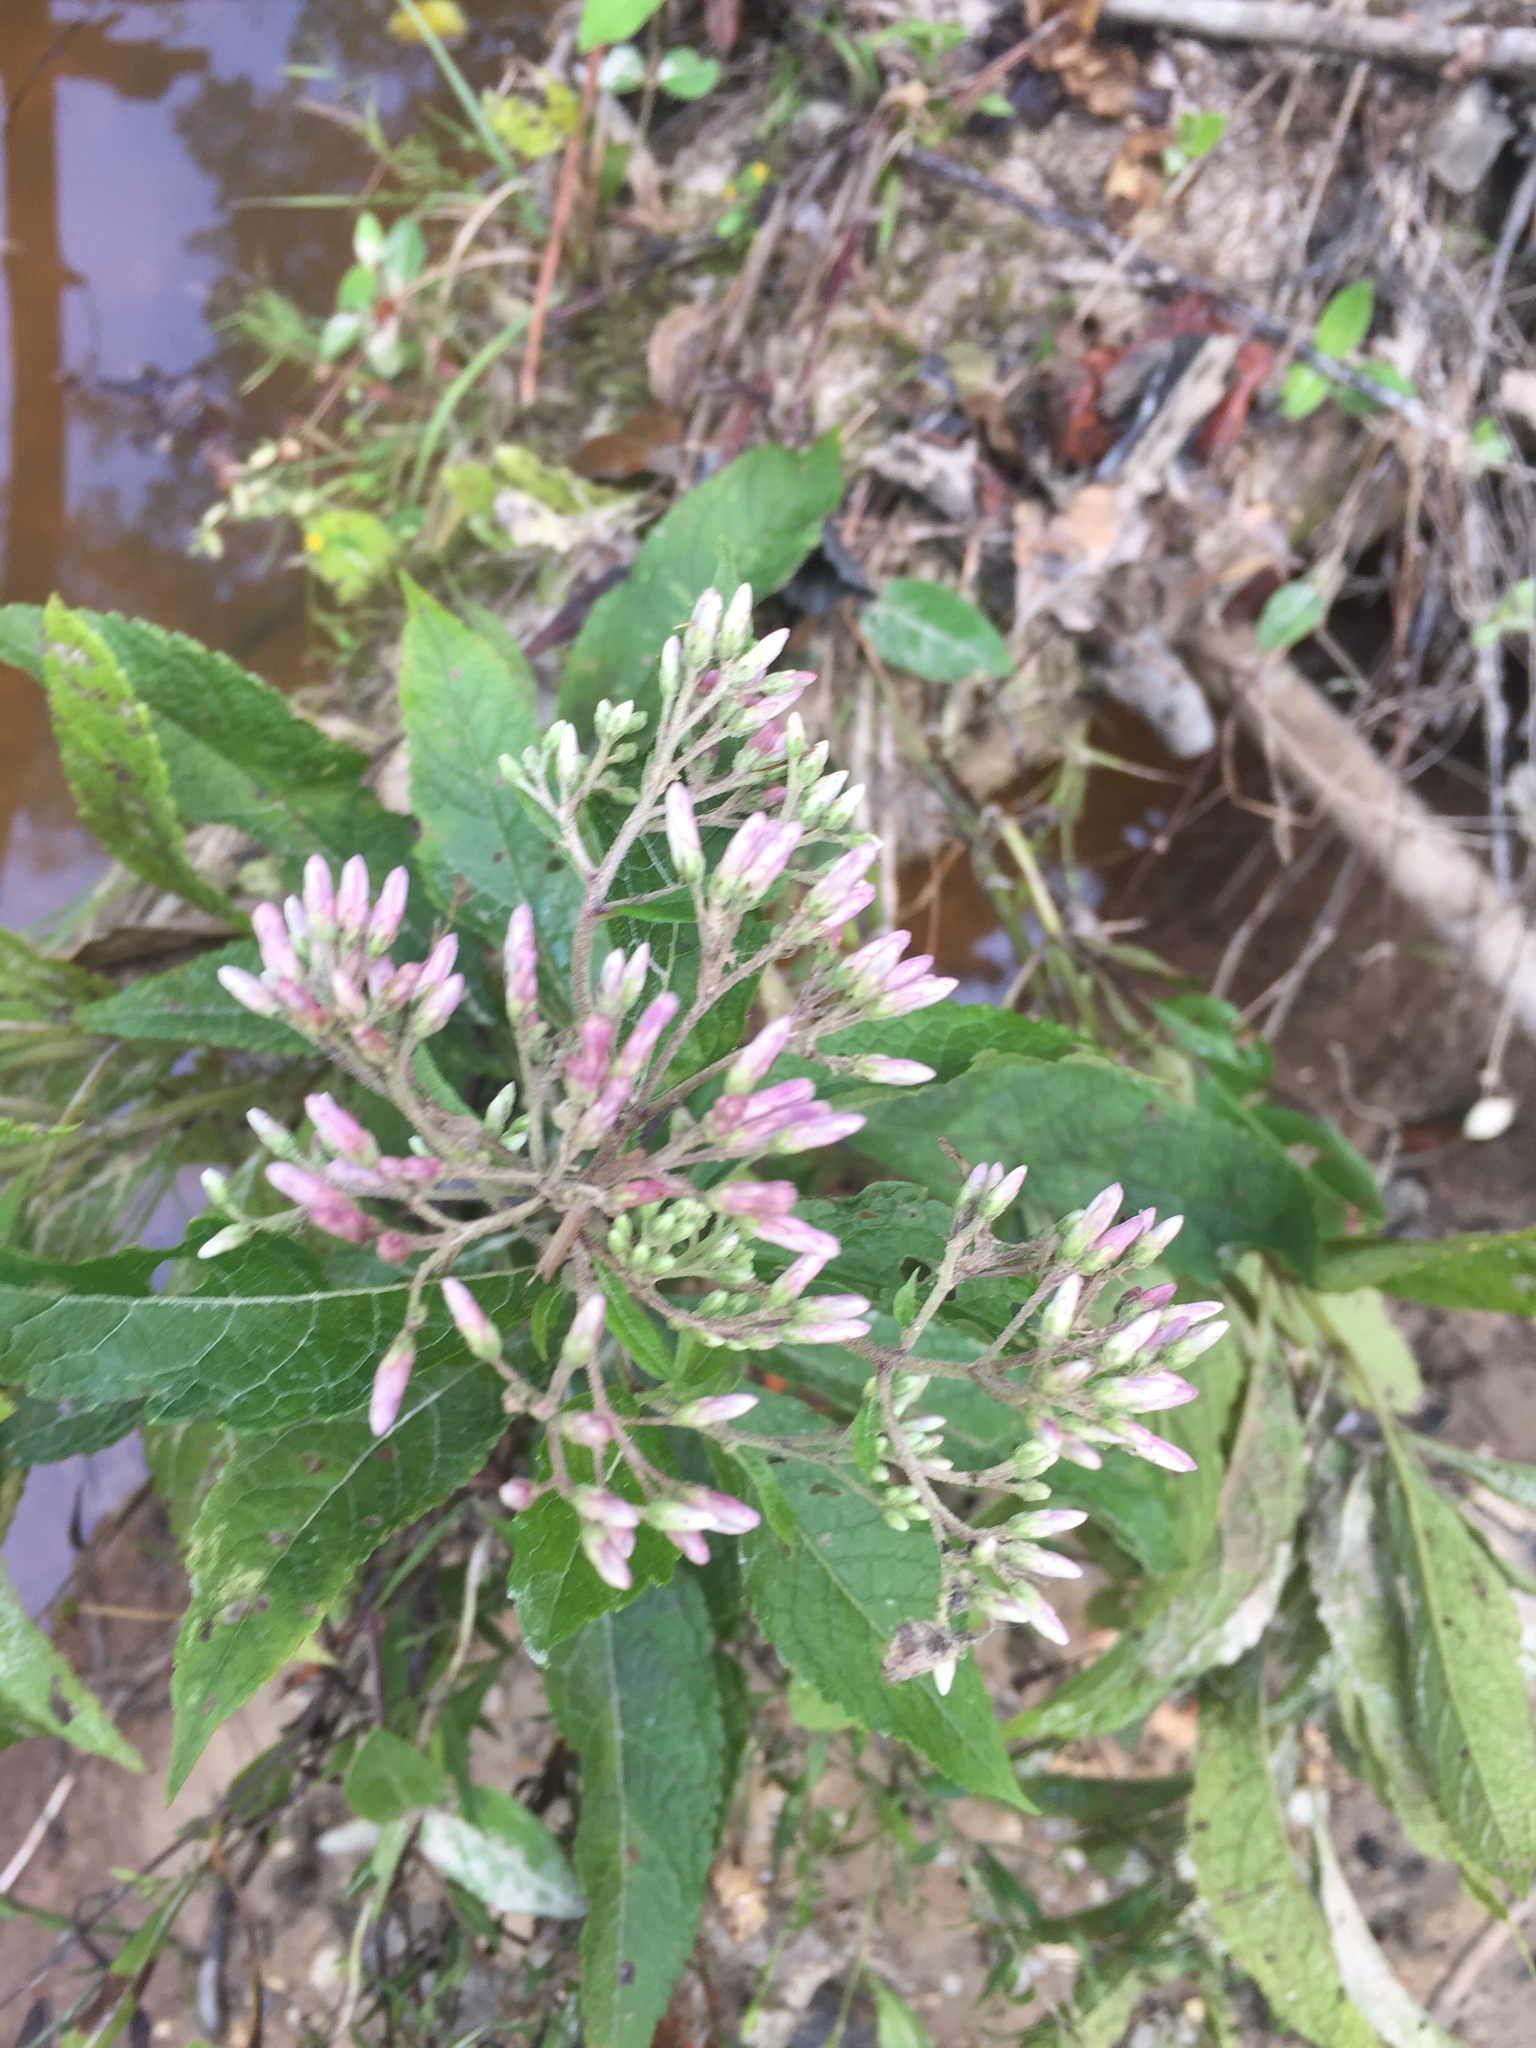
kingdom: Plantae
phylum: Tracheophyta
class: Magnoliopsida
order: Asterales
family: Asteraceae
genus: Eutrochium
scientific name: Eutrochium purpureum
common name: Gravelroot
